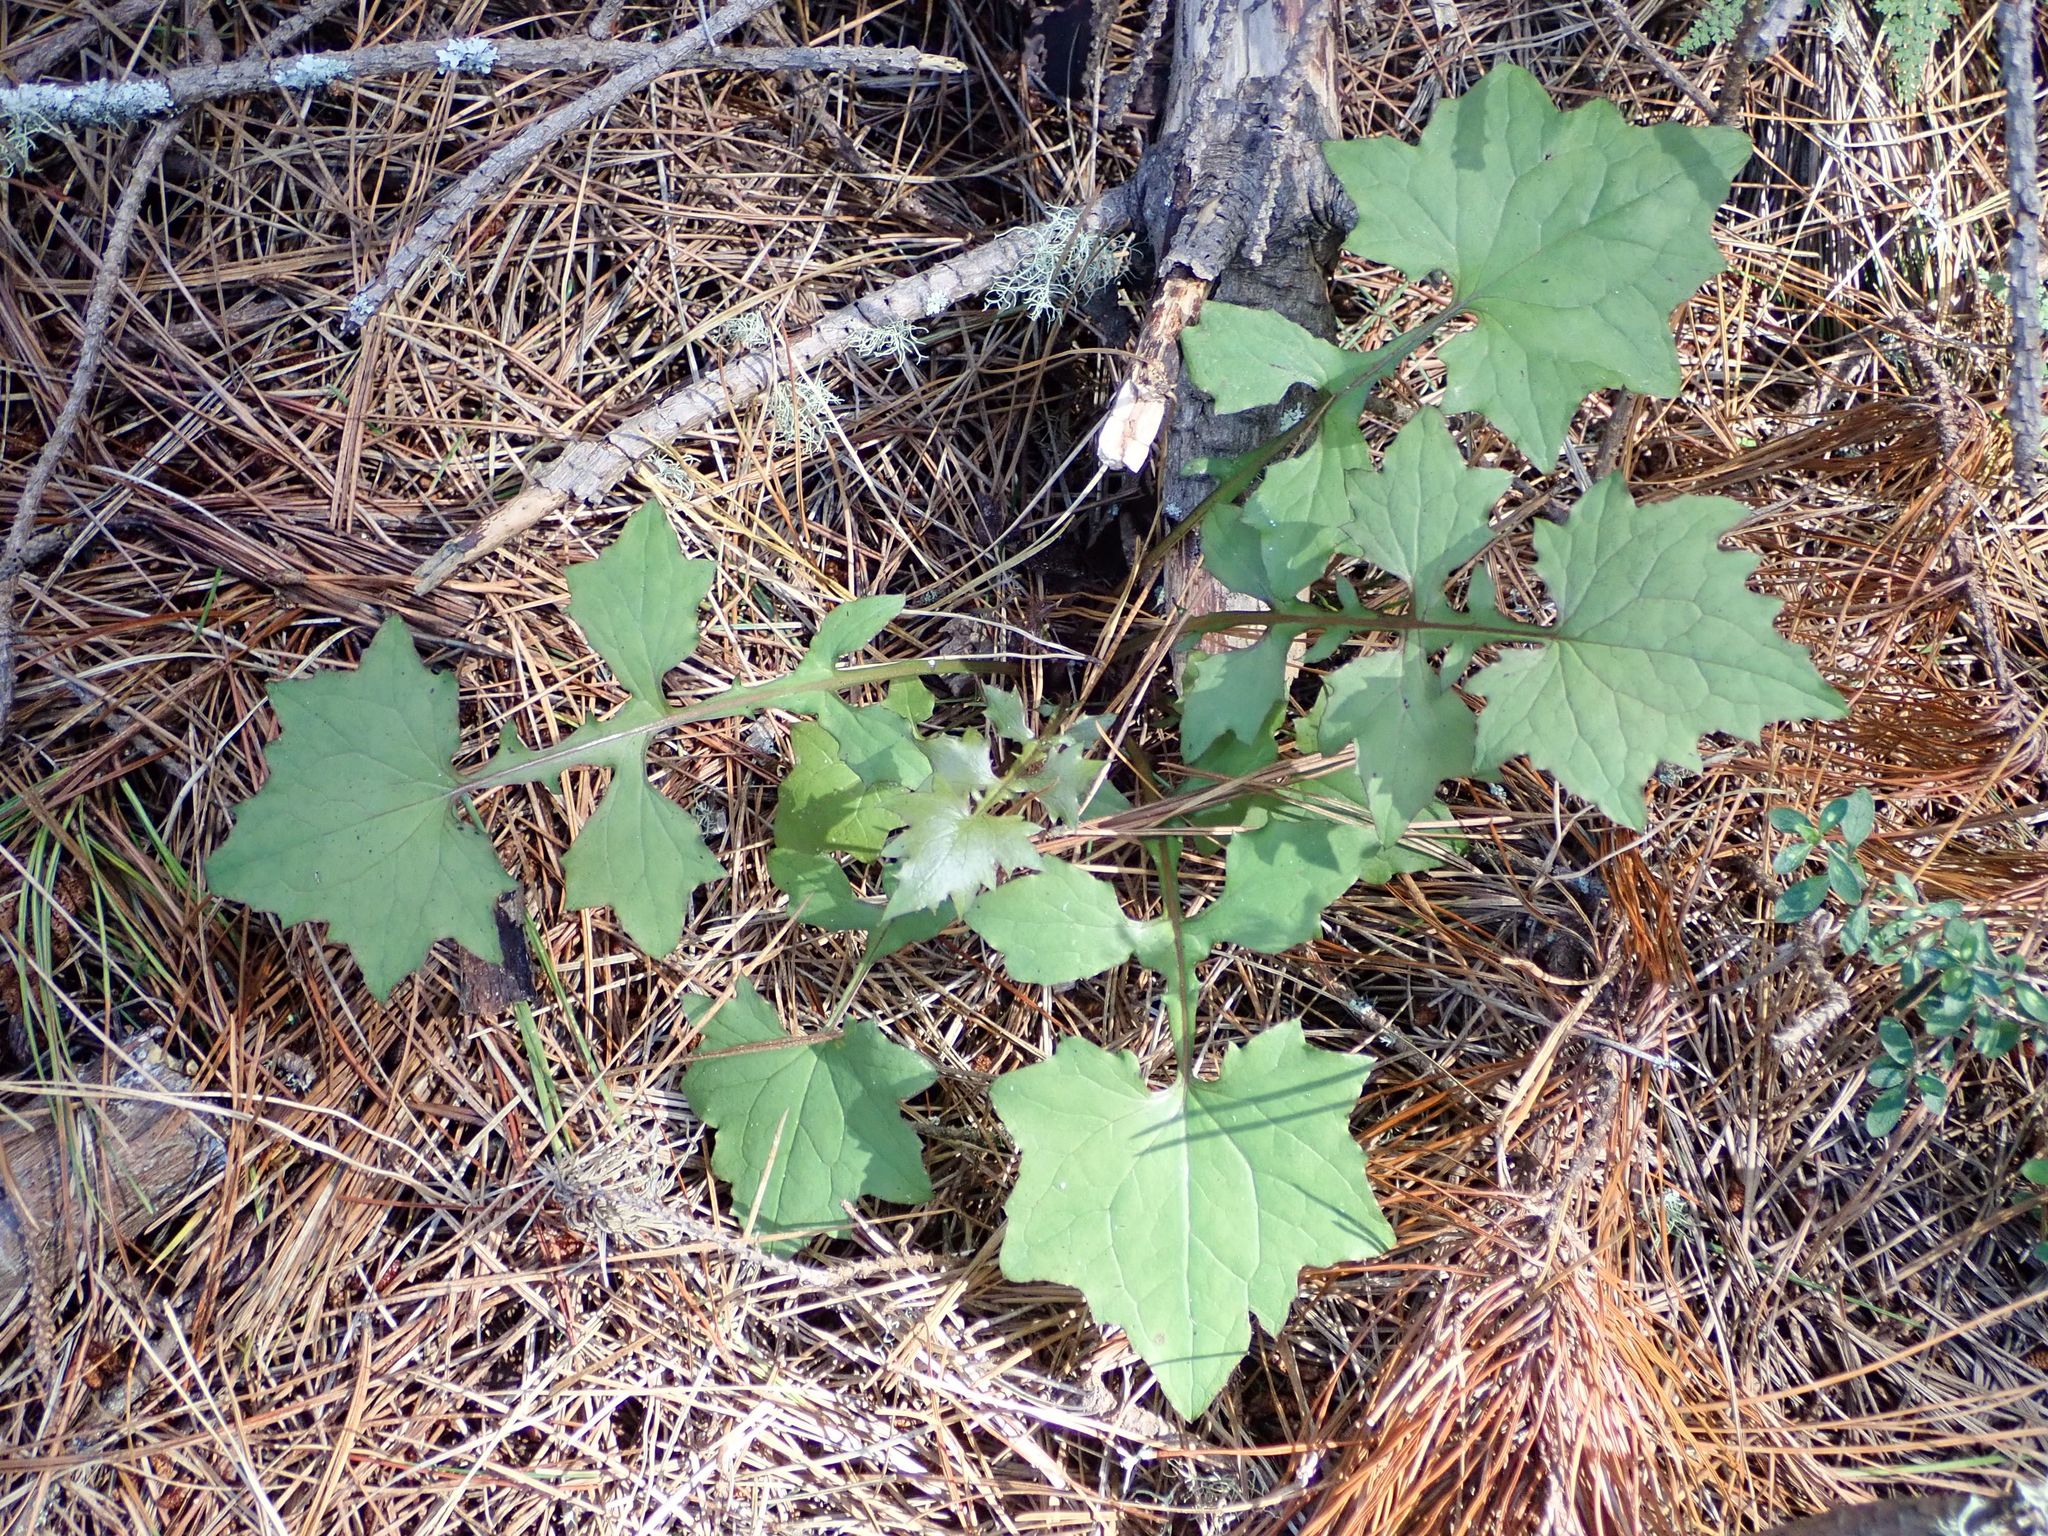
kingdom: Plantae
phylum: Tracheophyta
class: Magnoliopsida
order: Asterales
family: Asteraceae
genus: Mycelis
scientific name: Mycelis muralis
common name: Wall lettuce
